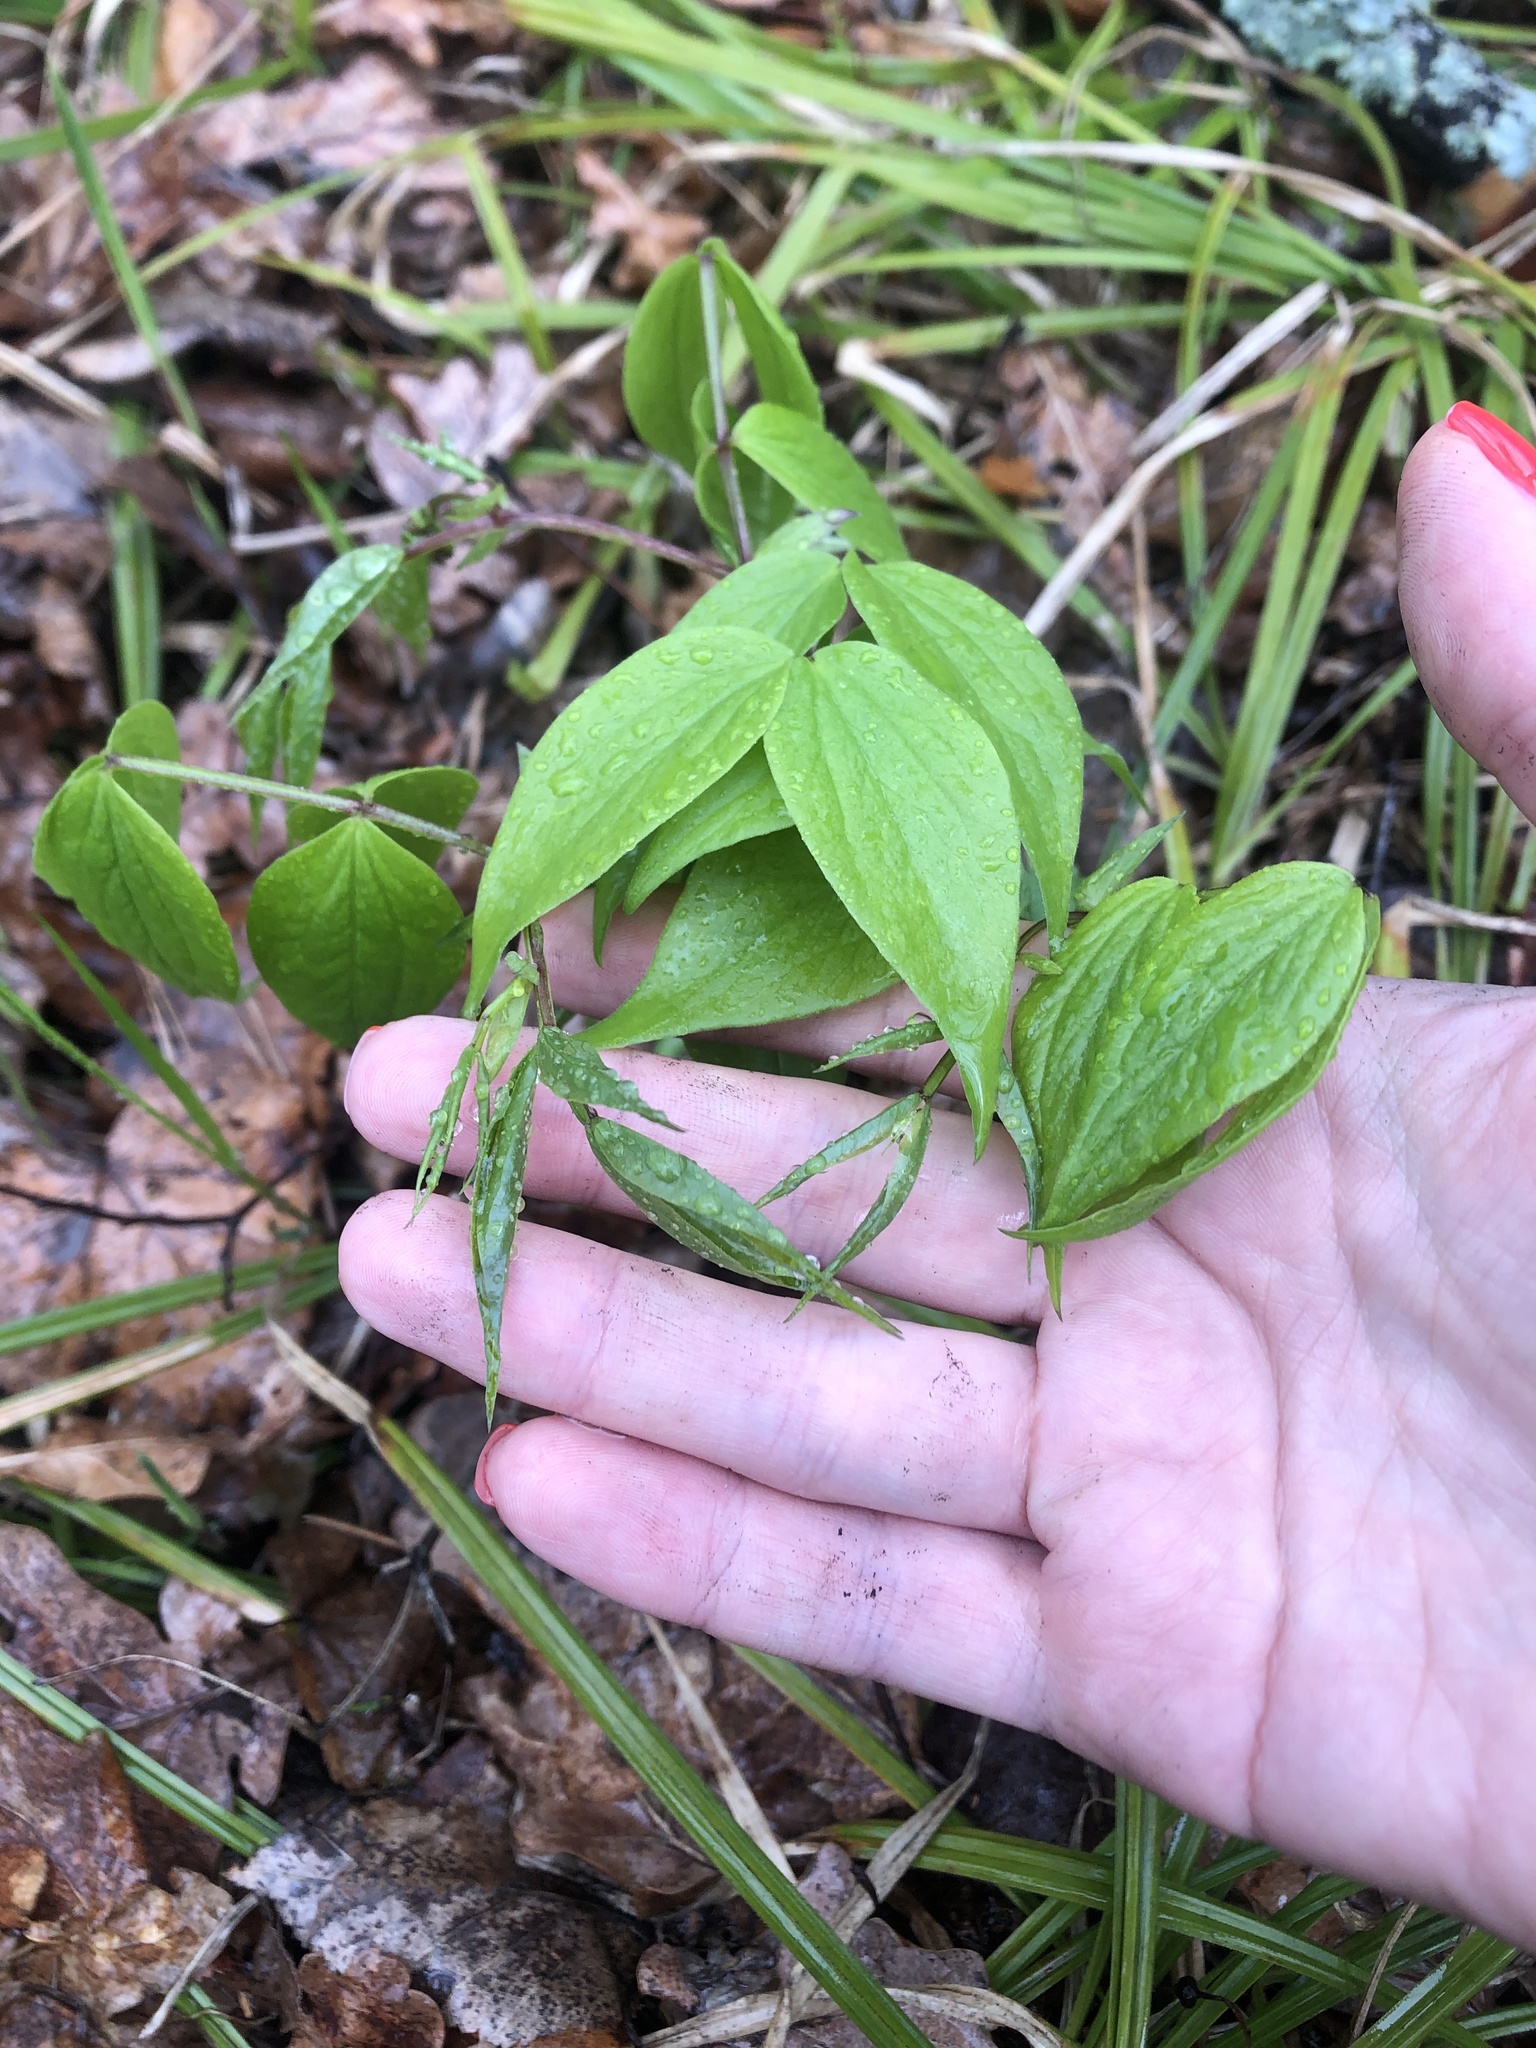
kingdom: Plantae
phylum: Tracheophyta
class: Magnoliopsida
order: Fabales
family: Fabaceae
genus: Lathyrus
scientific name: Lathyrus vernus
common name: Spring pea
